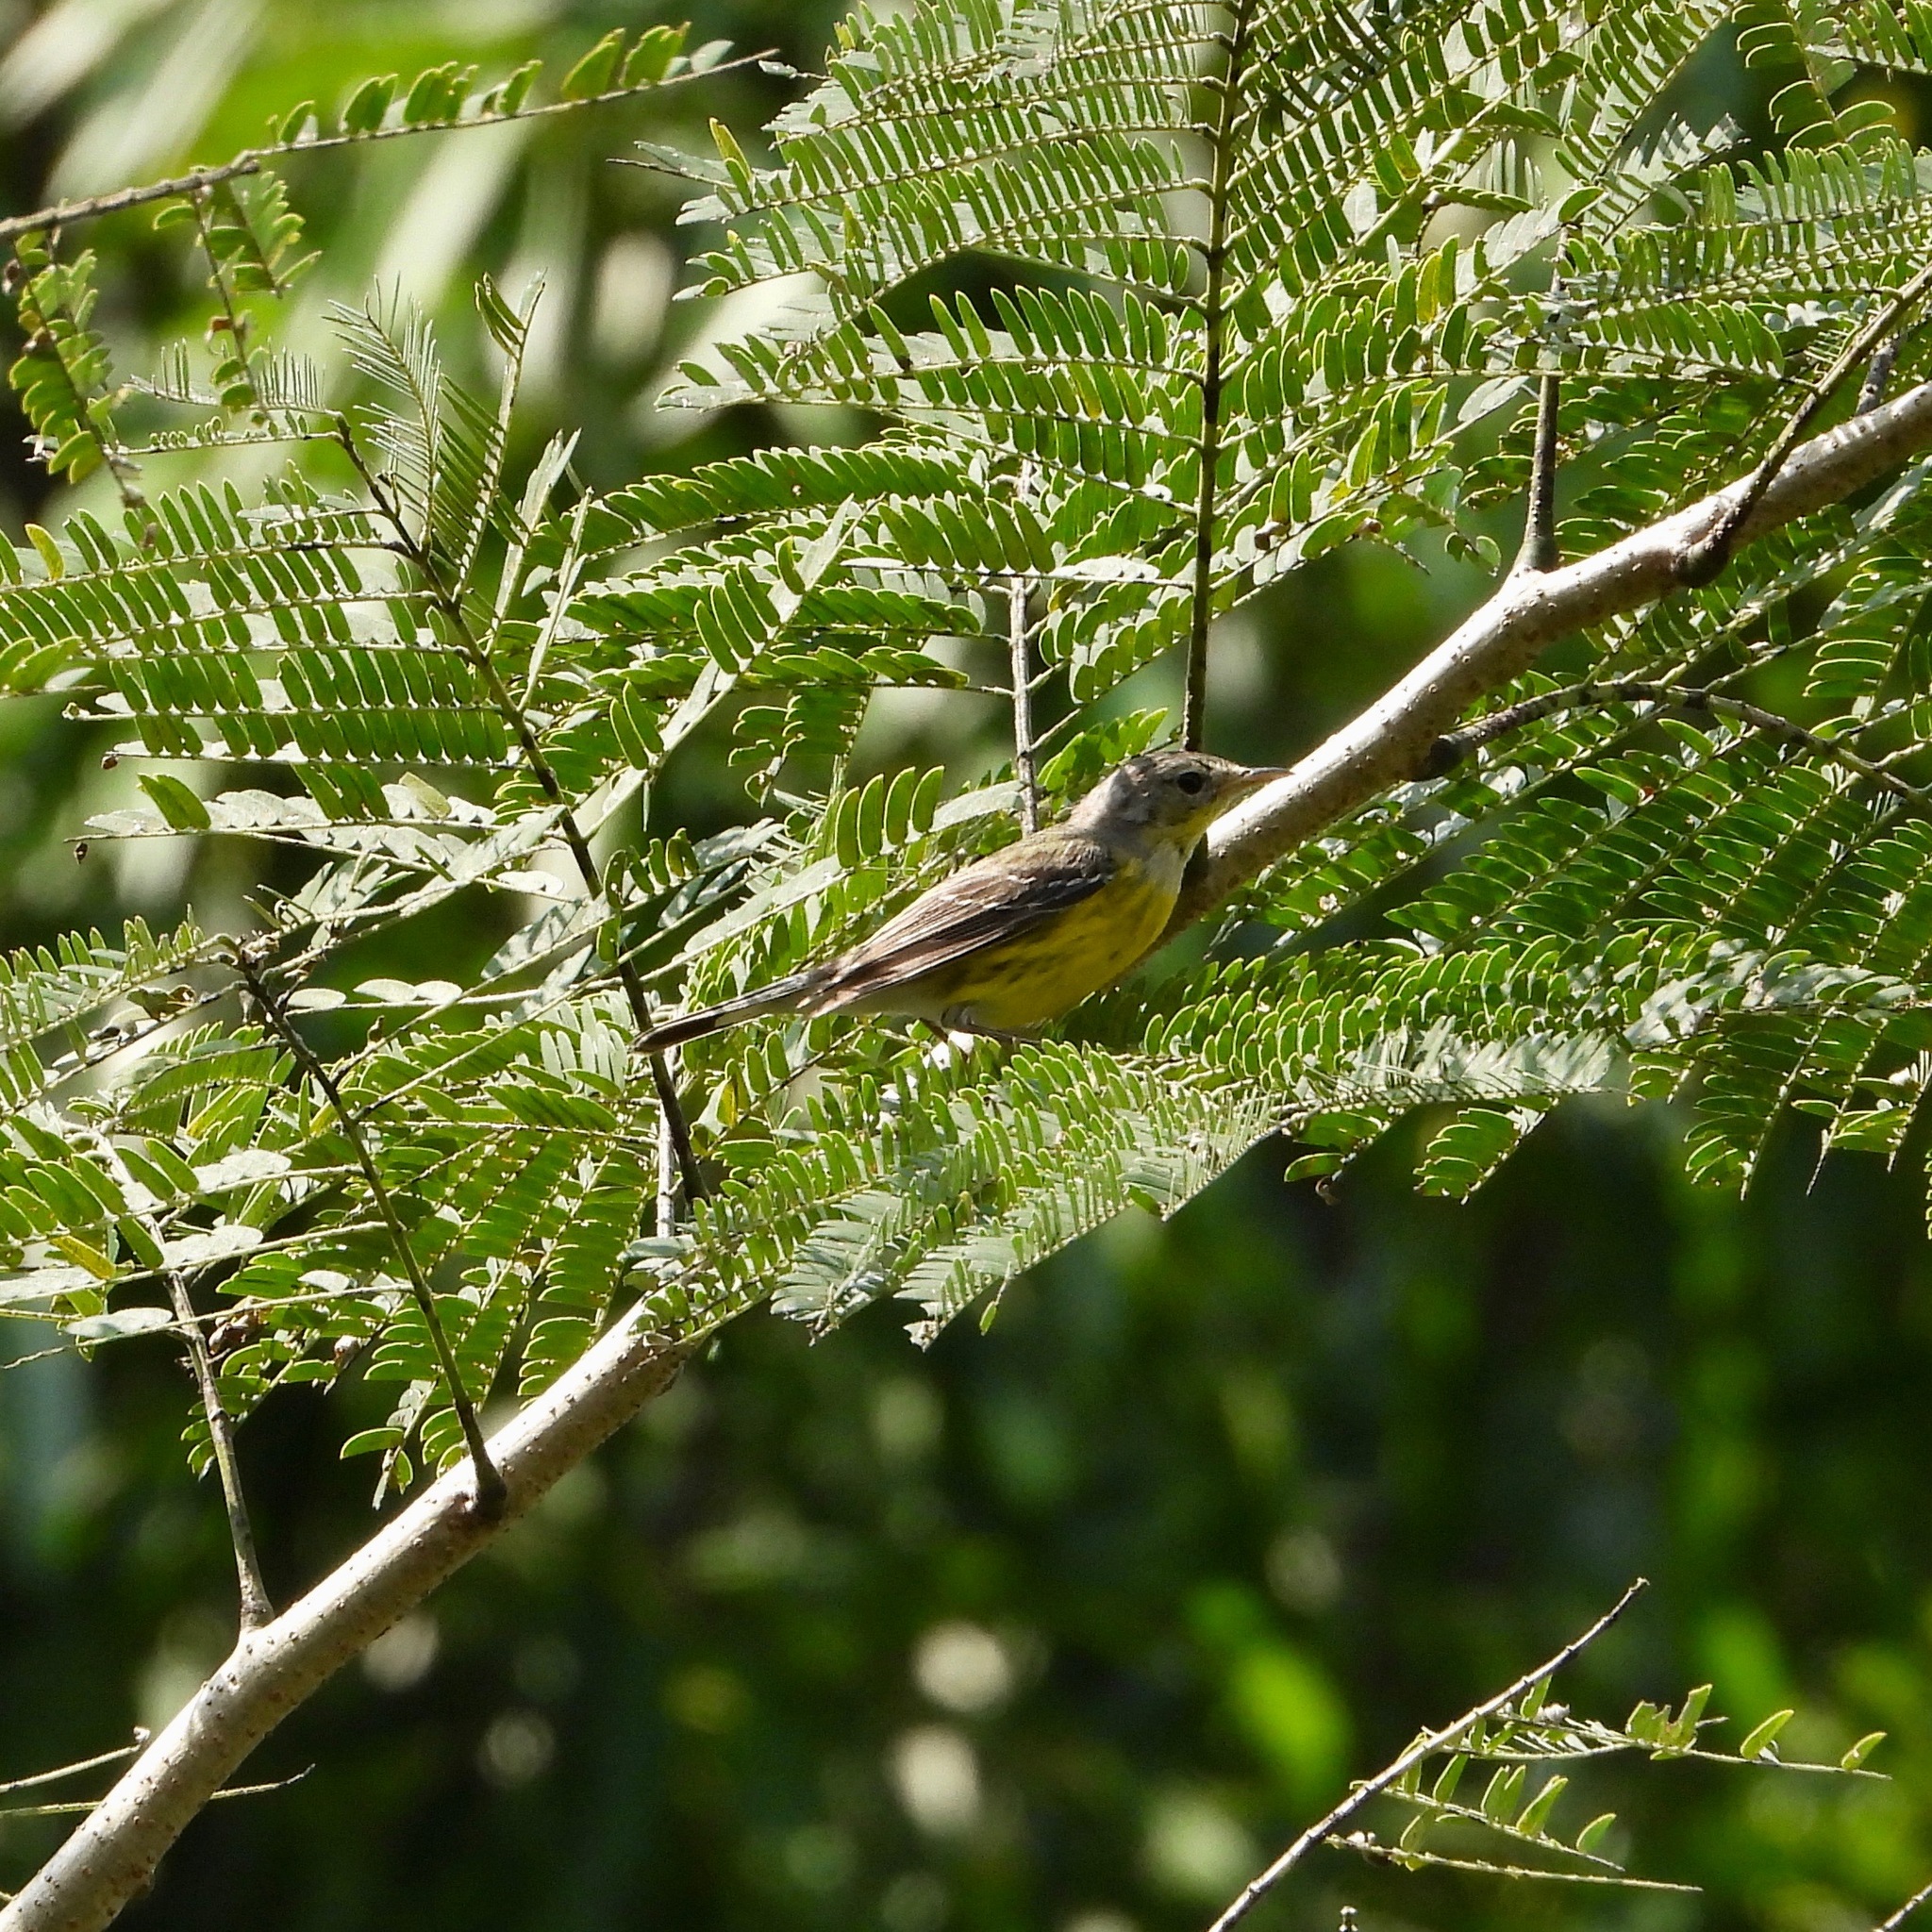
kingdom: Animalia
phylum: Chordata
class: Aves
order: Passeriformes
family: Parulidae
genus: Setophaga
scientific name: Setophaga magnolia
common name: Magnolia warbler
